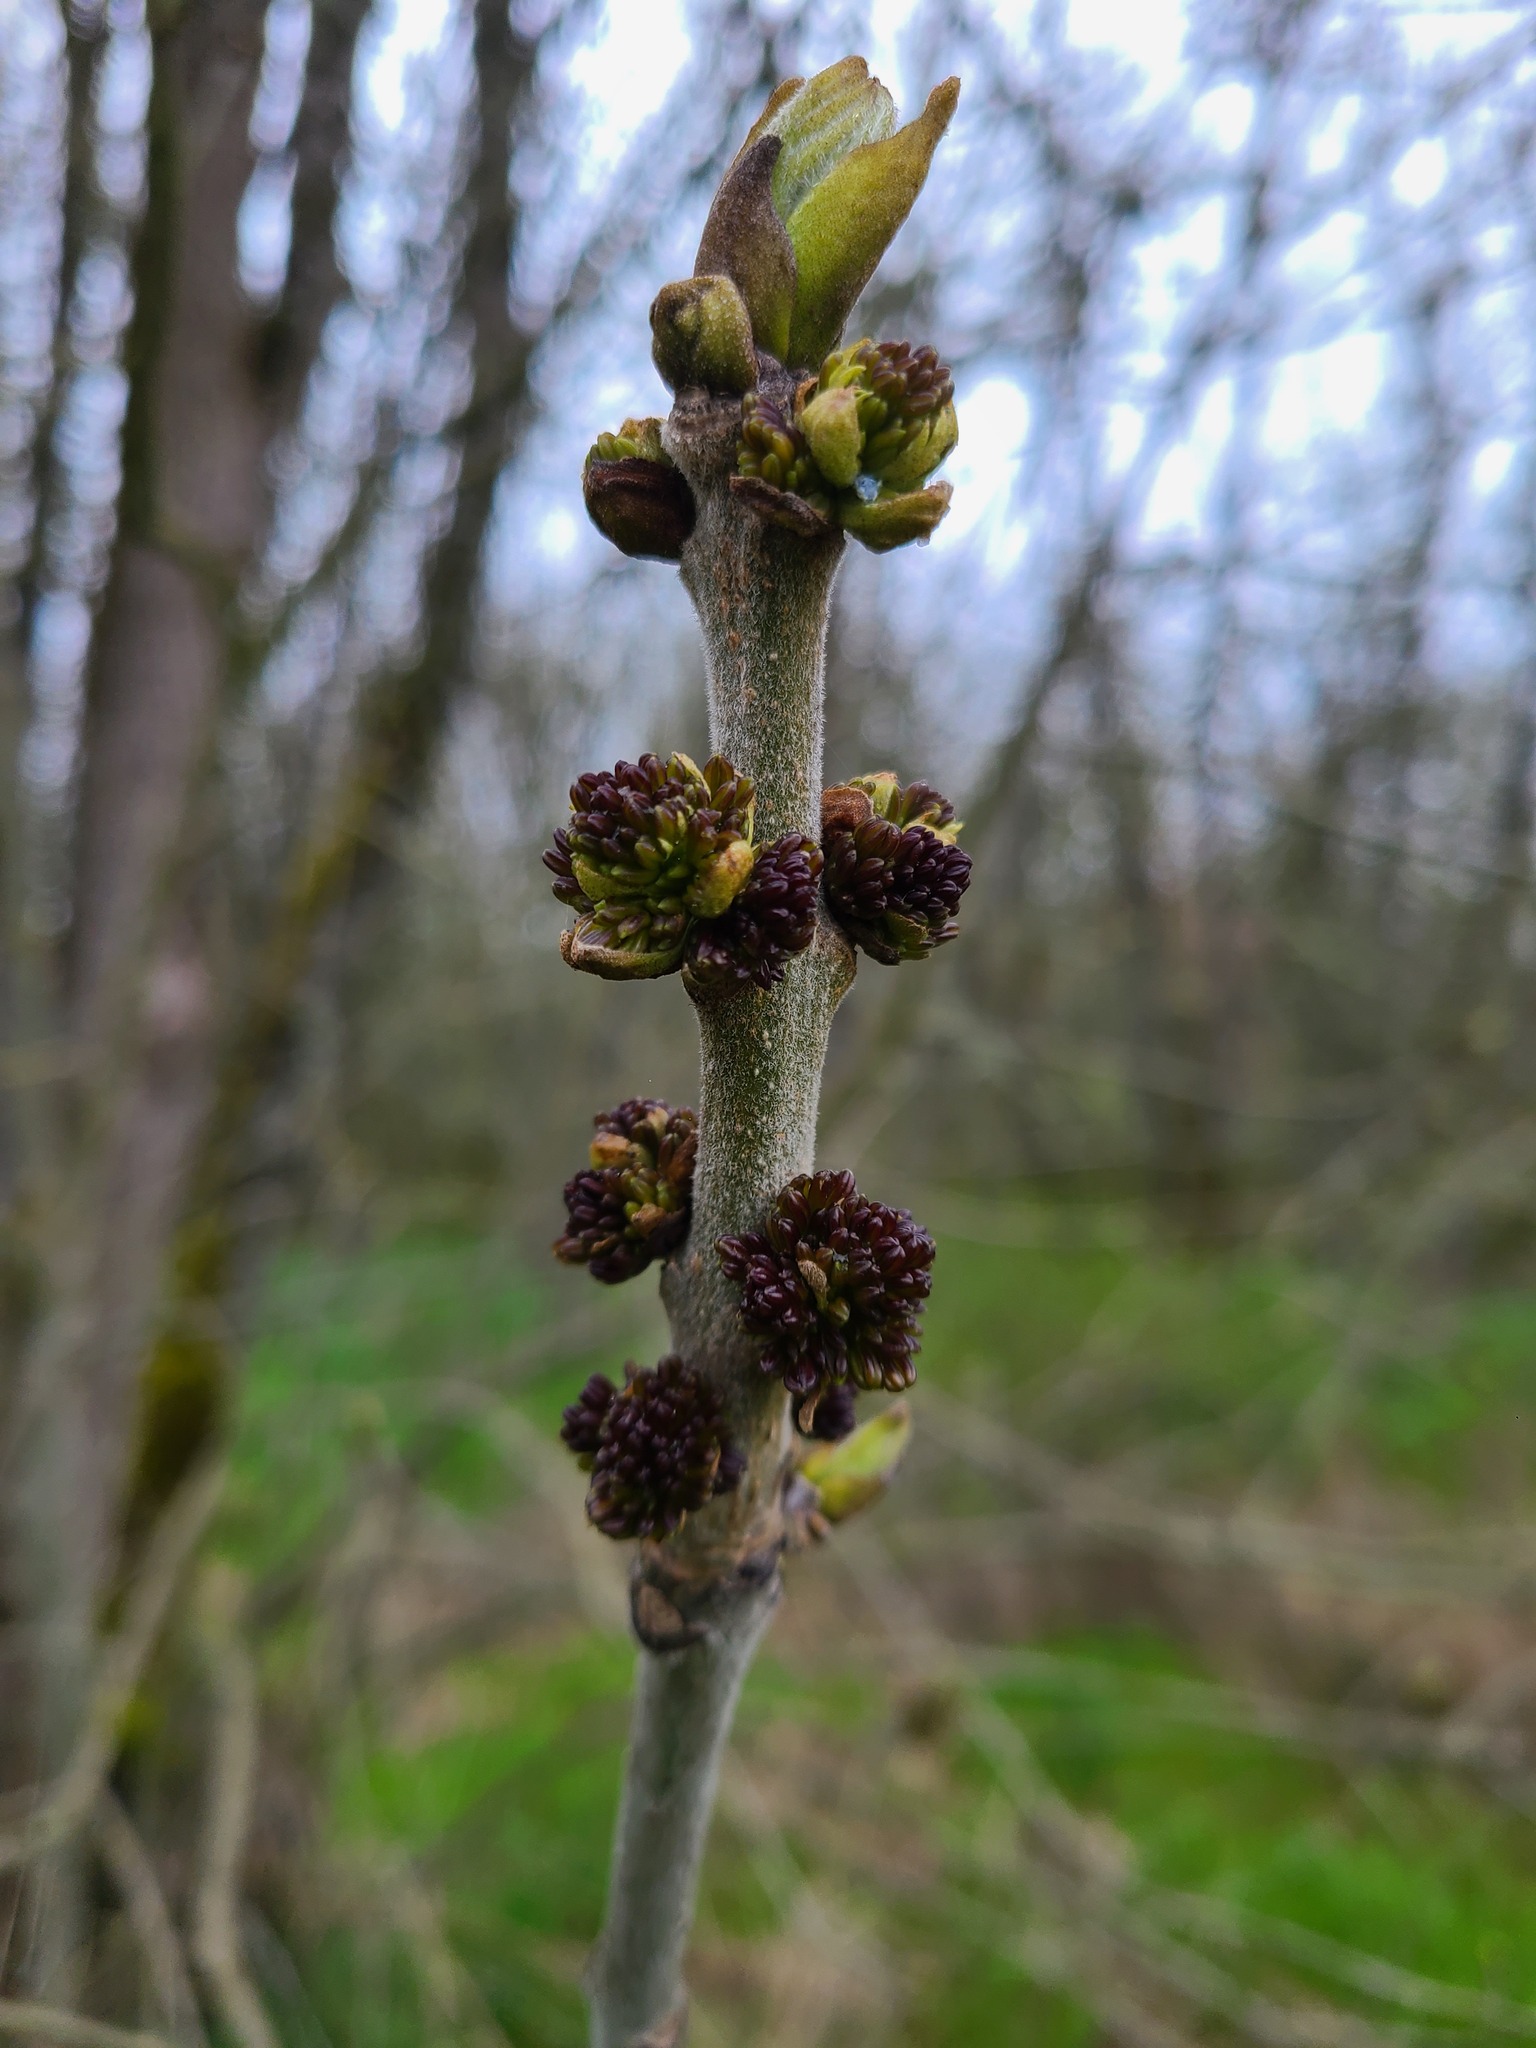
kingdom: Plantae
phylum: Tracheophyta
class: Magnoliopsida
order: Lamiales
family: Oleaceae
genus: Fraxinus
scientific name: Fraxinus latifolia
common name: Oregon ash
